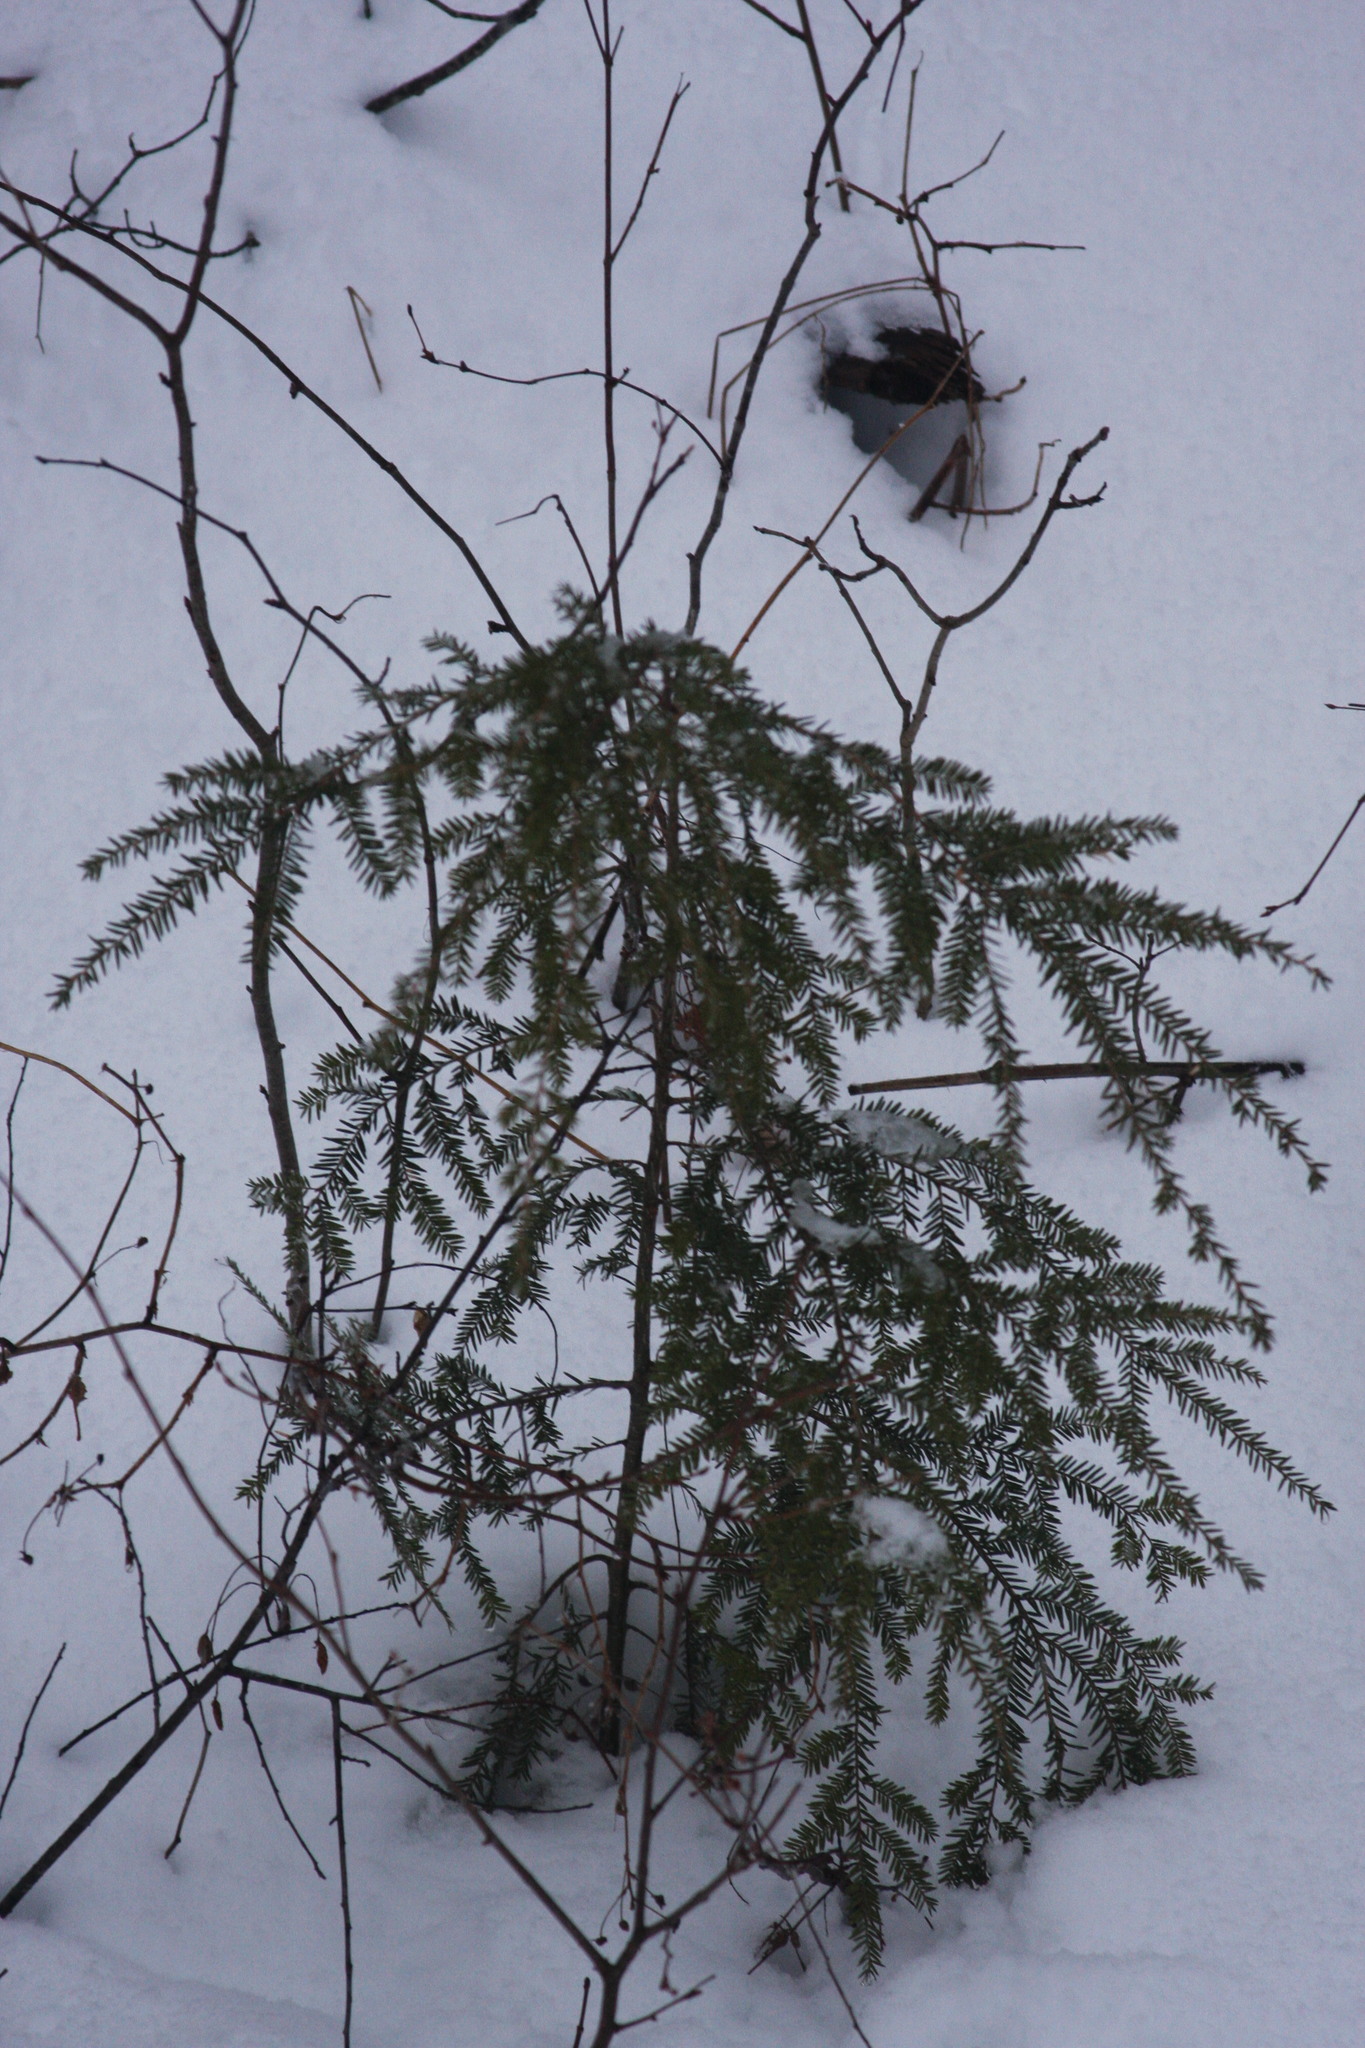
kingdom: Plantae
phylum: Tracheophyta
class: Pinopsida
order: Pinales
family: Pinaceae
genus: Tsuga
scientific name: Tsuga canadensis
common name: Eastern hemlock
